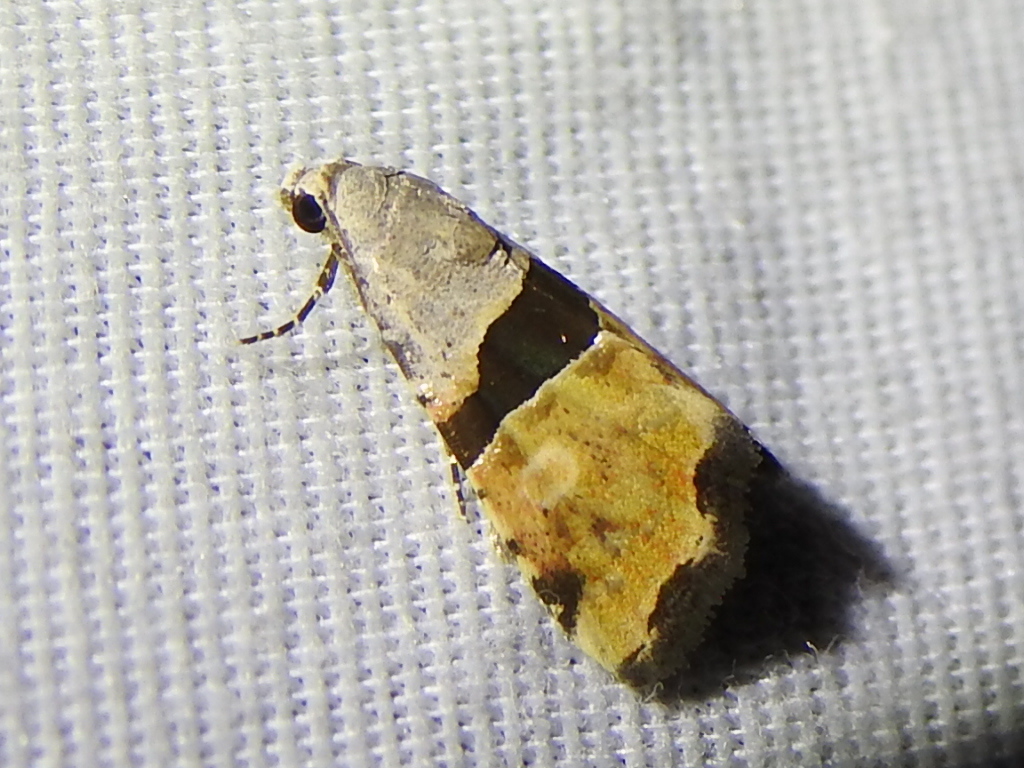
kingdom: Animalia
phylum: Arthropoda
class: Insecta
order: Lepidoptera
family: Noctuidae
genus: Cobubatha
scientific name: Cobubatha lixiva
